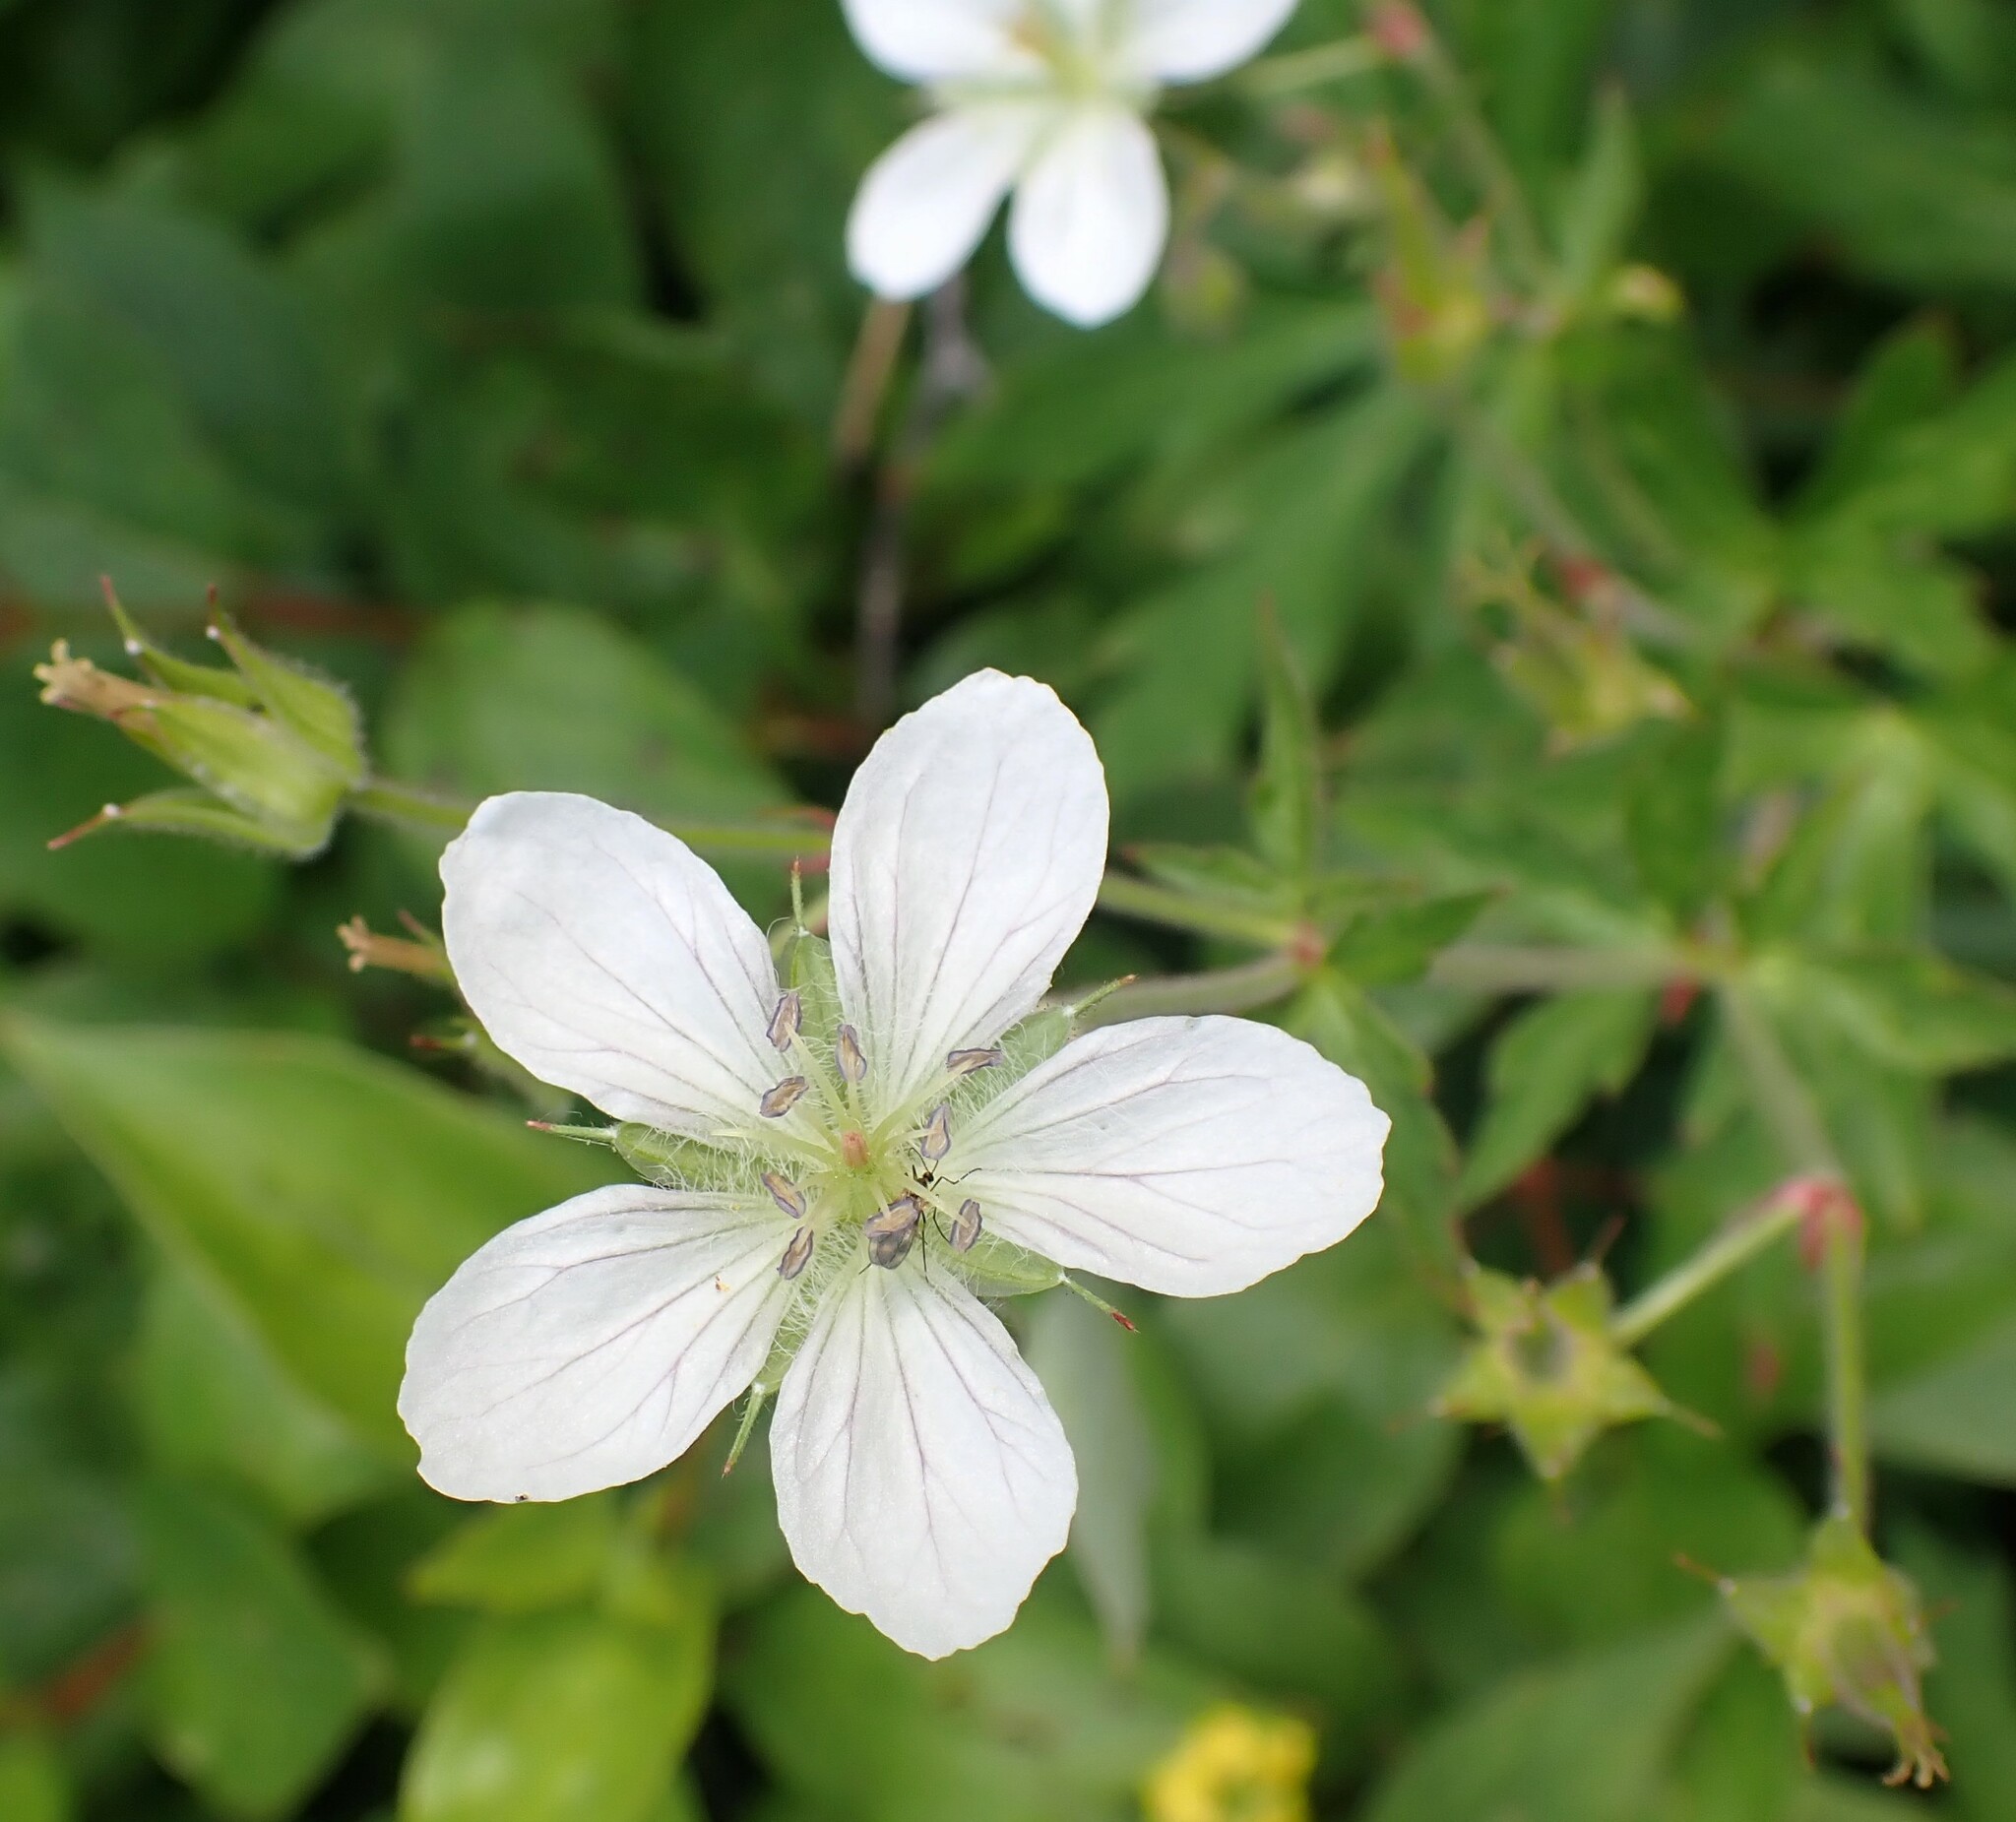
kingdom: Plantae
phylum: Tracheophyta
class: Magnoliopsida
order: Geraniales
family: Geraniaceae
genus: Geranium
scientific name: Geranium richardsonii
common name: Richardson's crane's-bill
